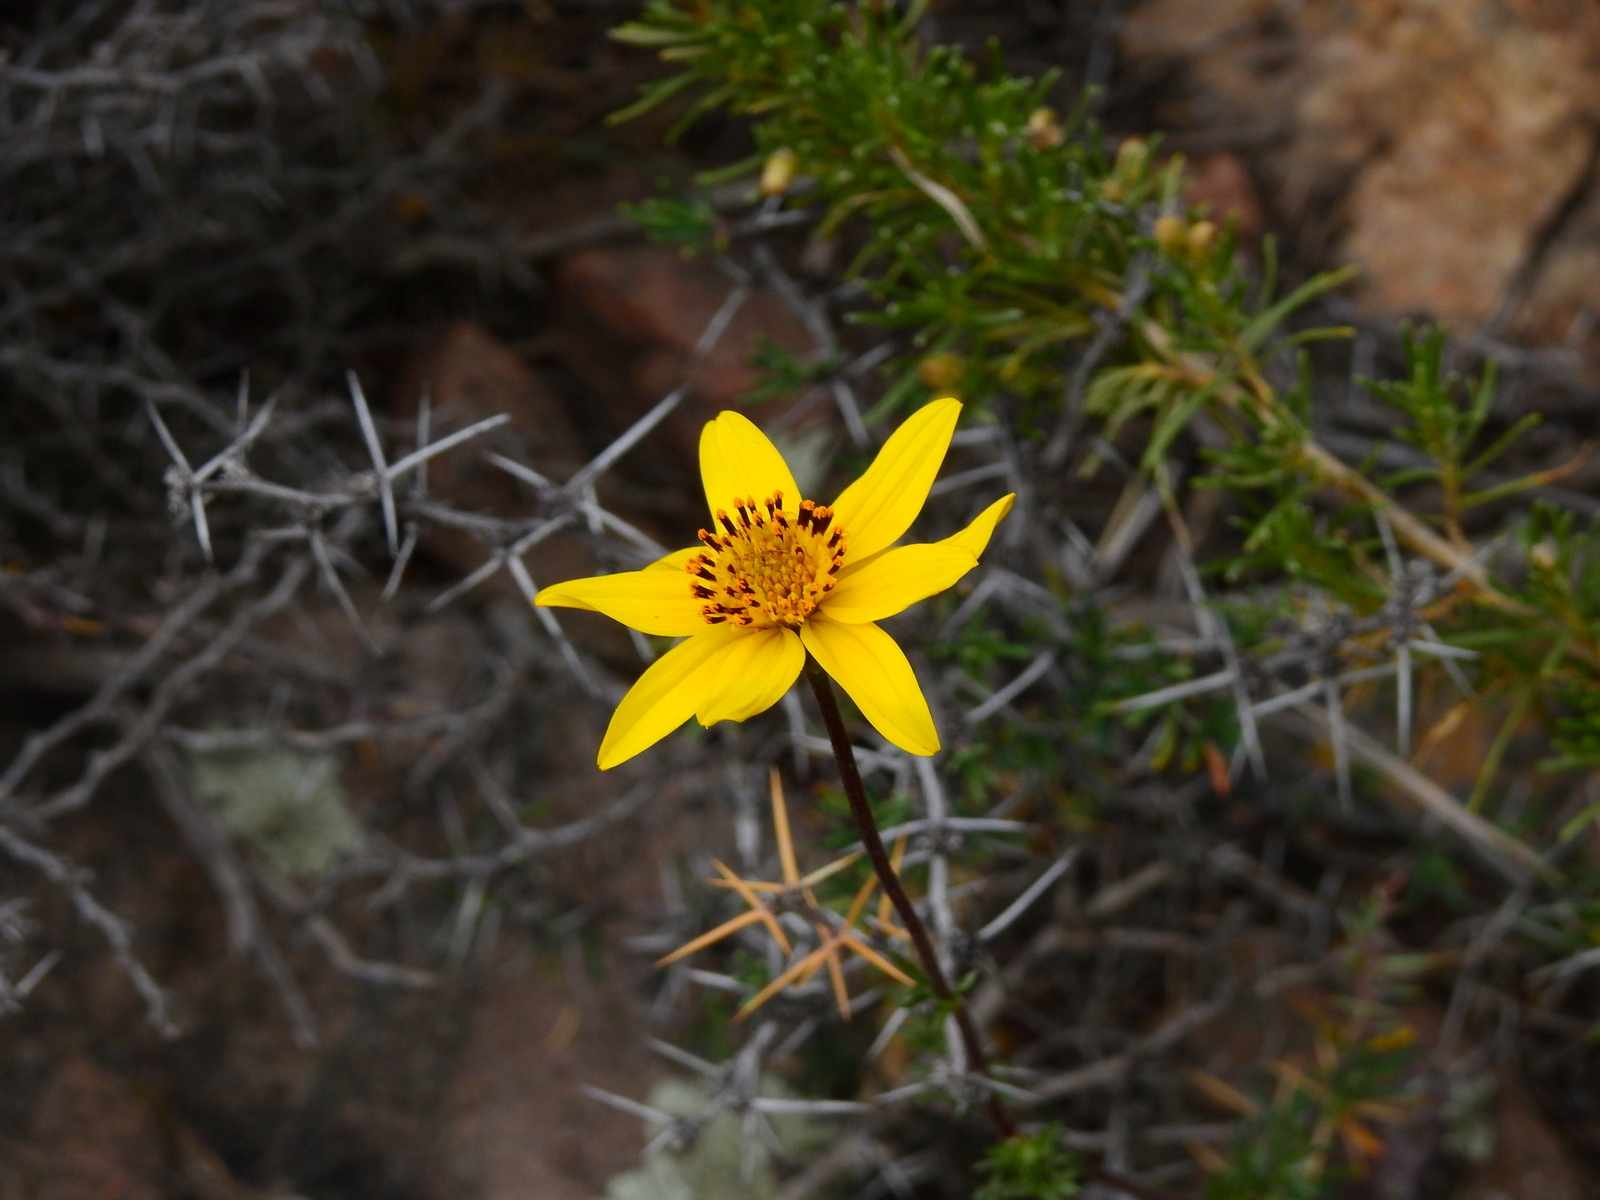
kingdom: Plantae
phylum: Tracheophyta
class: Magnoliopsida
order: Asterales
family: Asteraceae
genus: Bidens
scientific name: Bidens triplinervia
